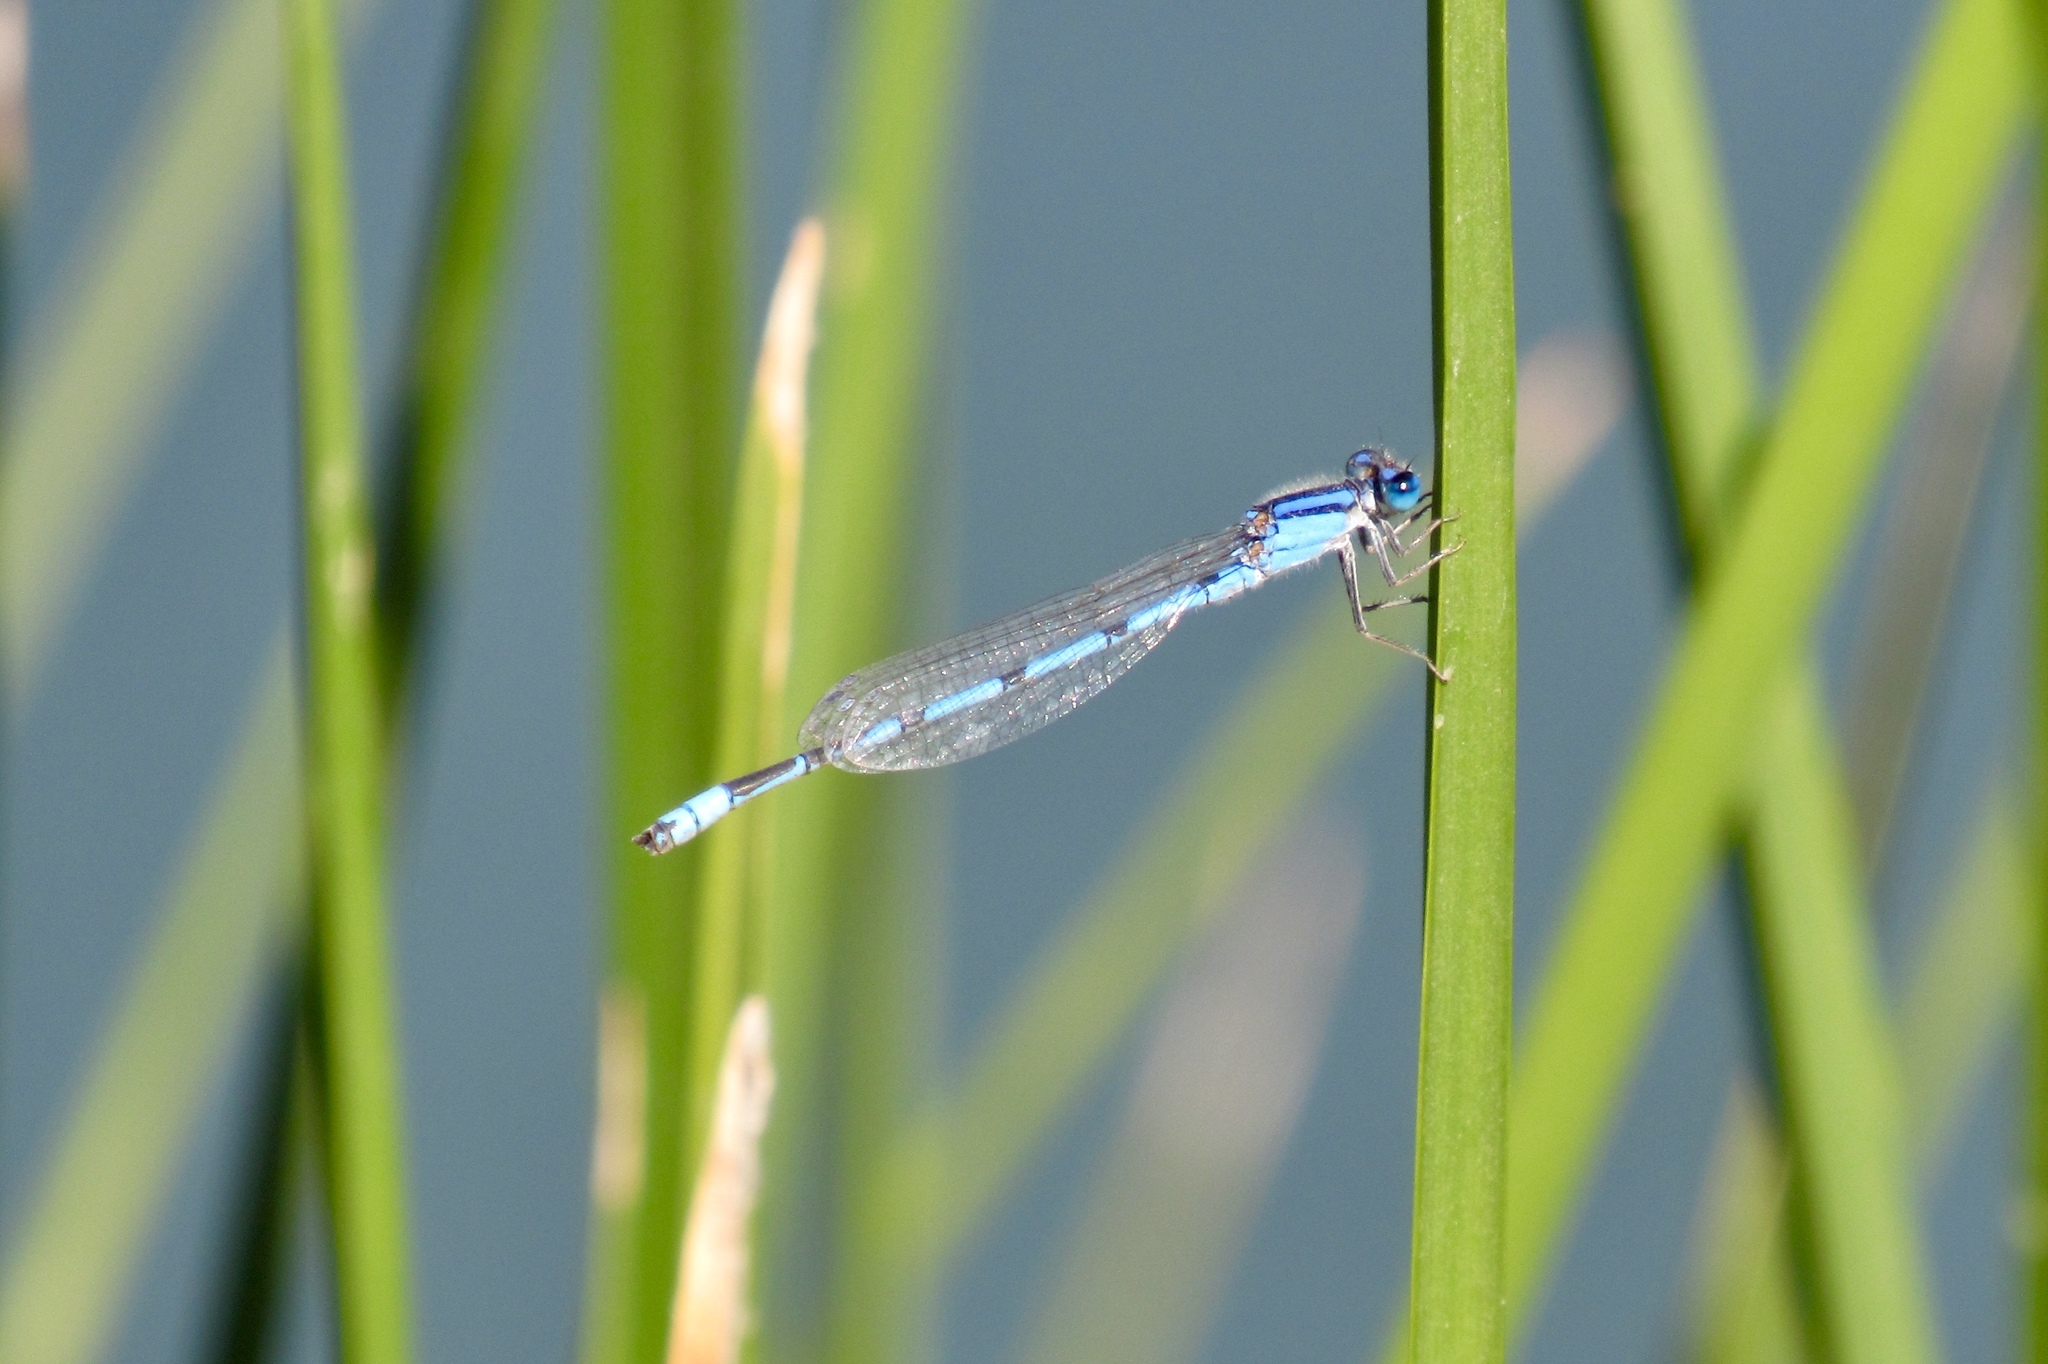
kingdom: Animalia
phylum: Arthropoda
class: Insecta
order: Odonata
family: Coenagrionidae
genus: Enallagma
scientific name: Enallagma civile
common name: Damselfly
